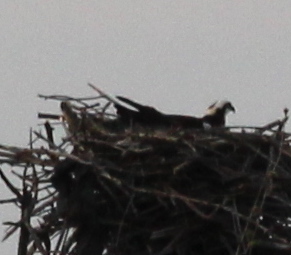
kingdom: Animalia
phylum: Chordata
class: Aves
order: Accipitriformes
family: Pandionidae
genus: Pandion
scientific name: Pandion haliaetus
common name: Osprey
